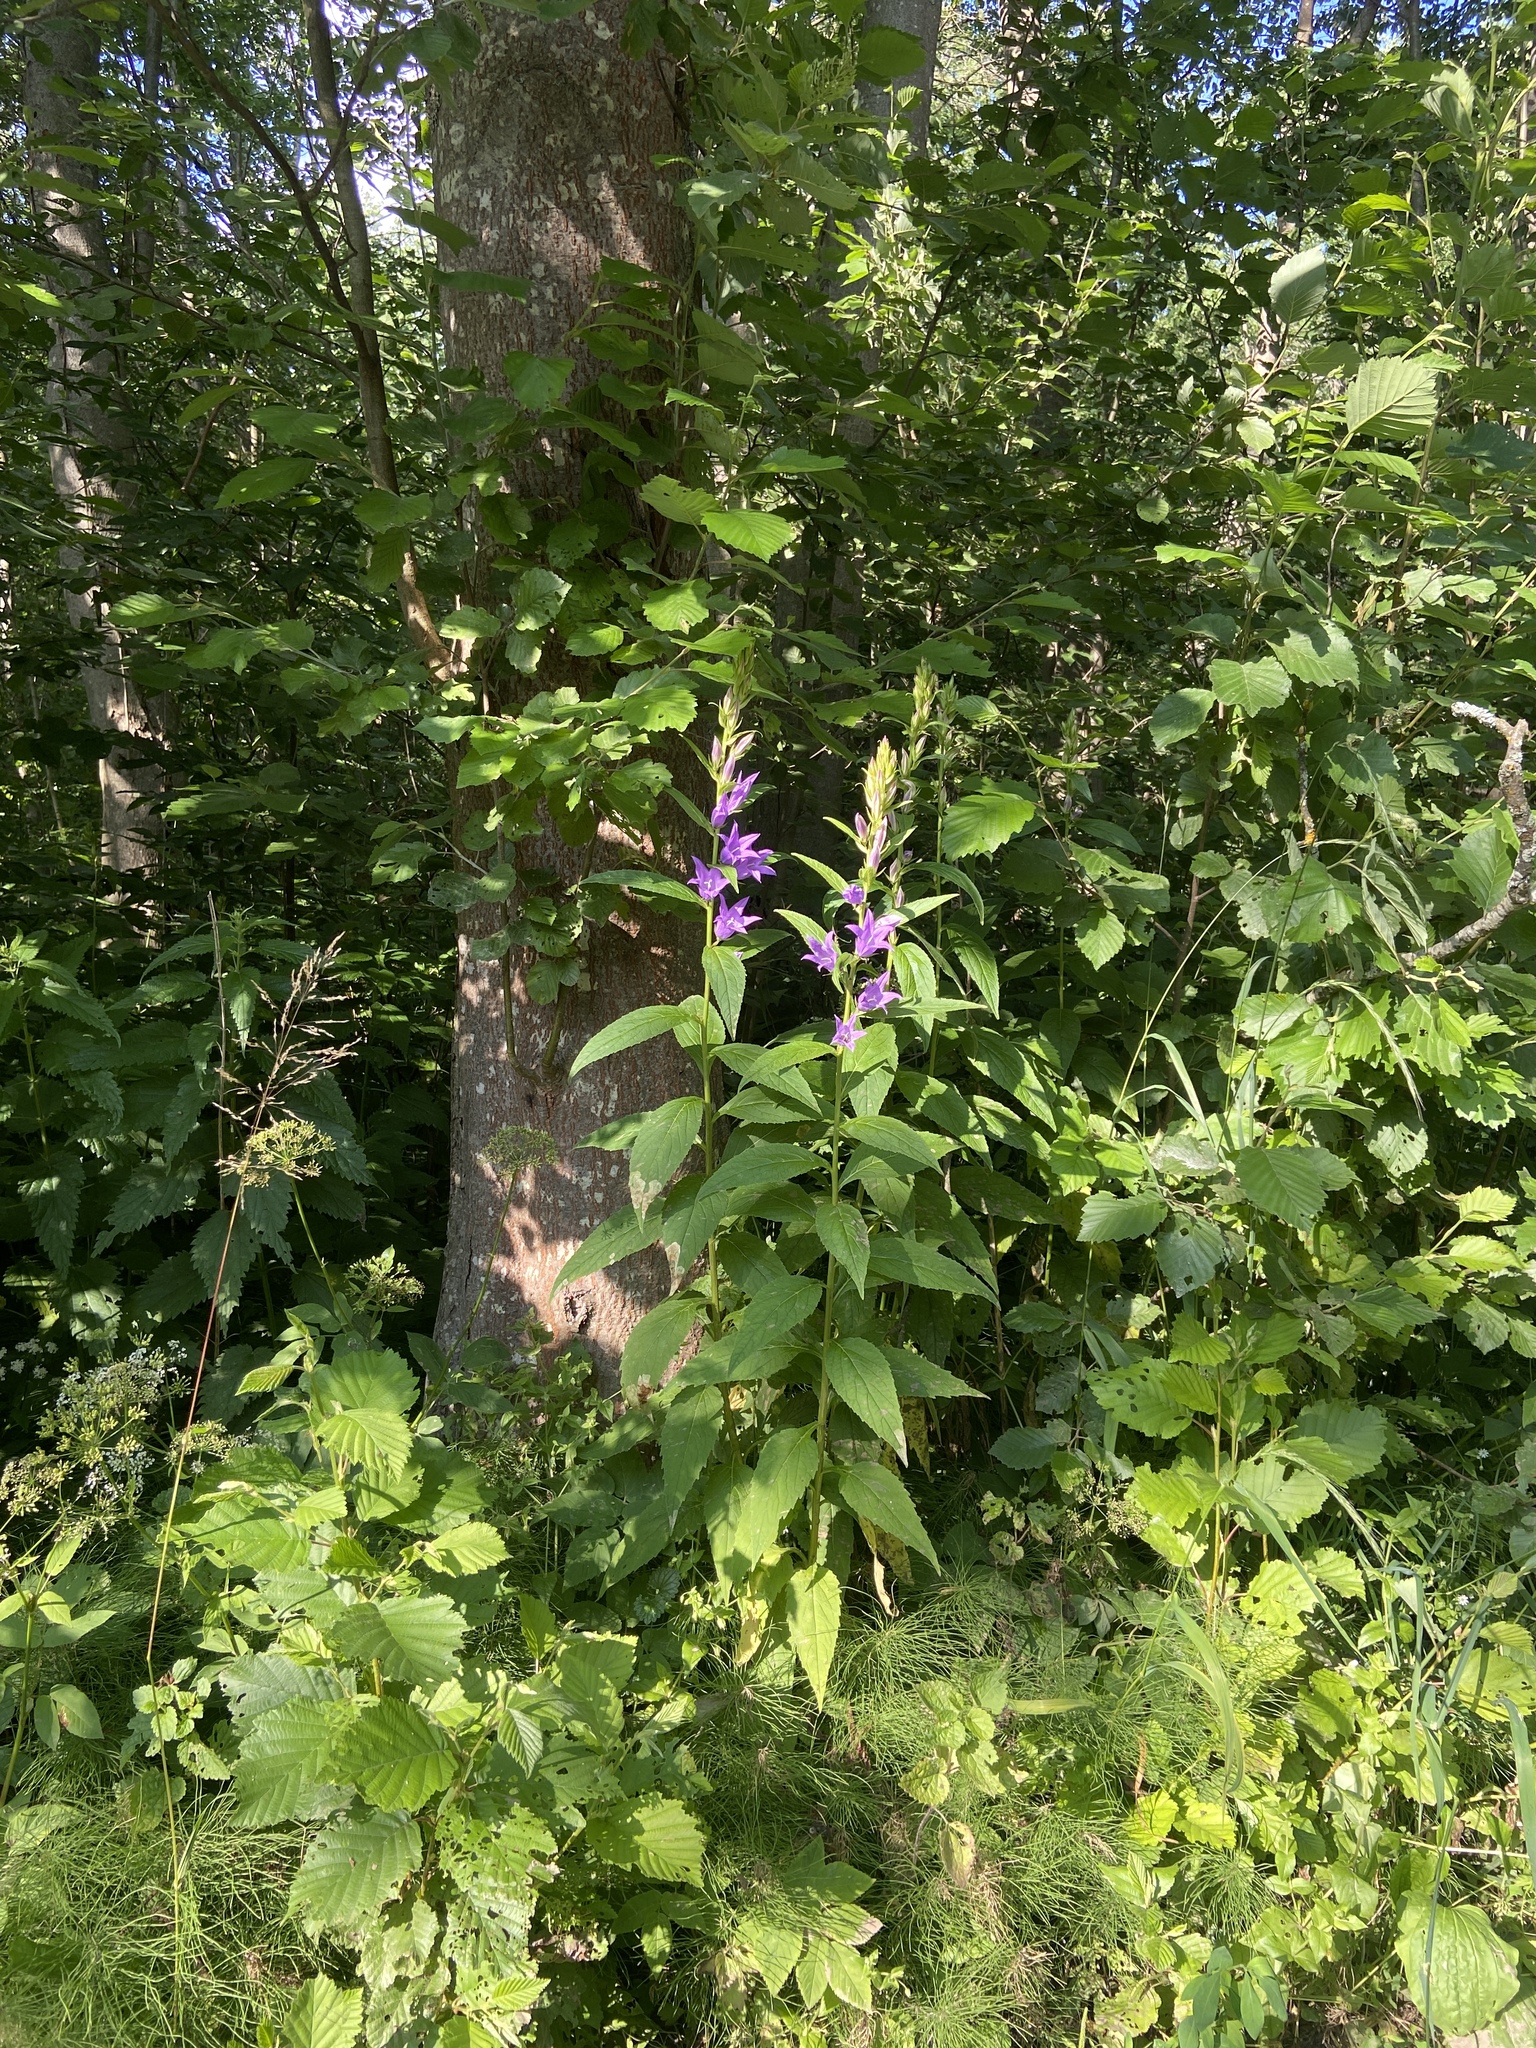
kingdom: Plantae
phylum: Tracheophyta
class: Magnoliopsida
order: Asterales
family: Campanulaceae
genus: Campanula
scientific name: Campanula latifolia
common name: Giant bellflower
